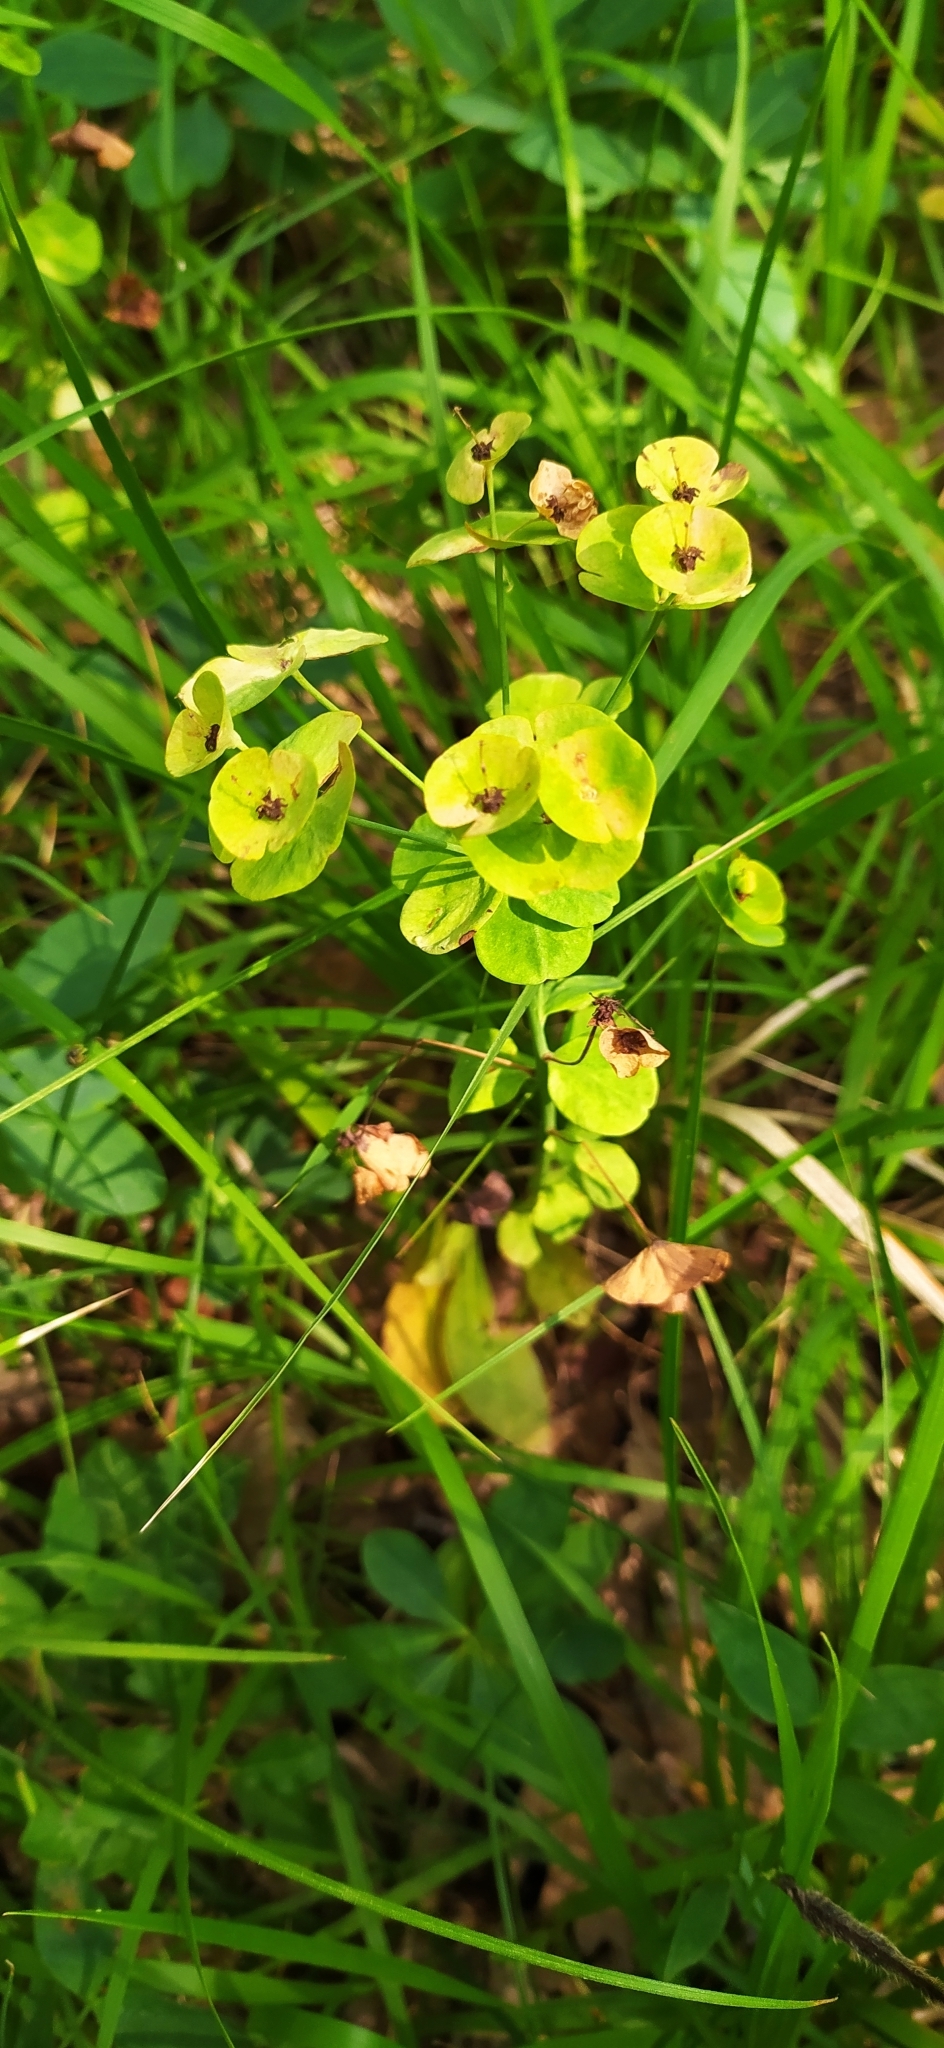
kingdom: Plantae
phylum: Tracheophyta
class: Magnoliopsida
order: Malpighiales
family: Euphorbiaceae
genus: Euphorbia
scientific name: Euphorbia amygdaloides
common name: Wood spurge
